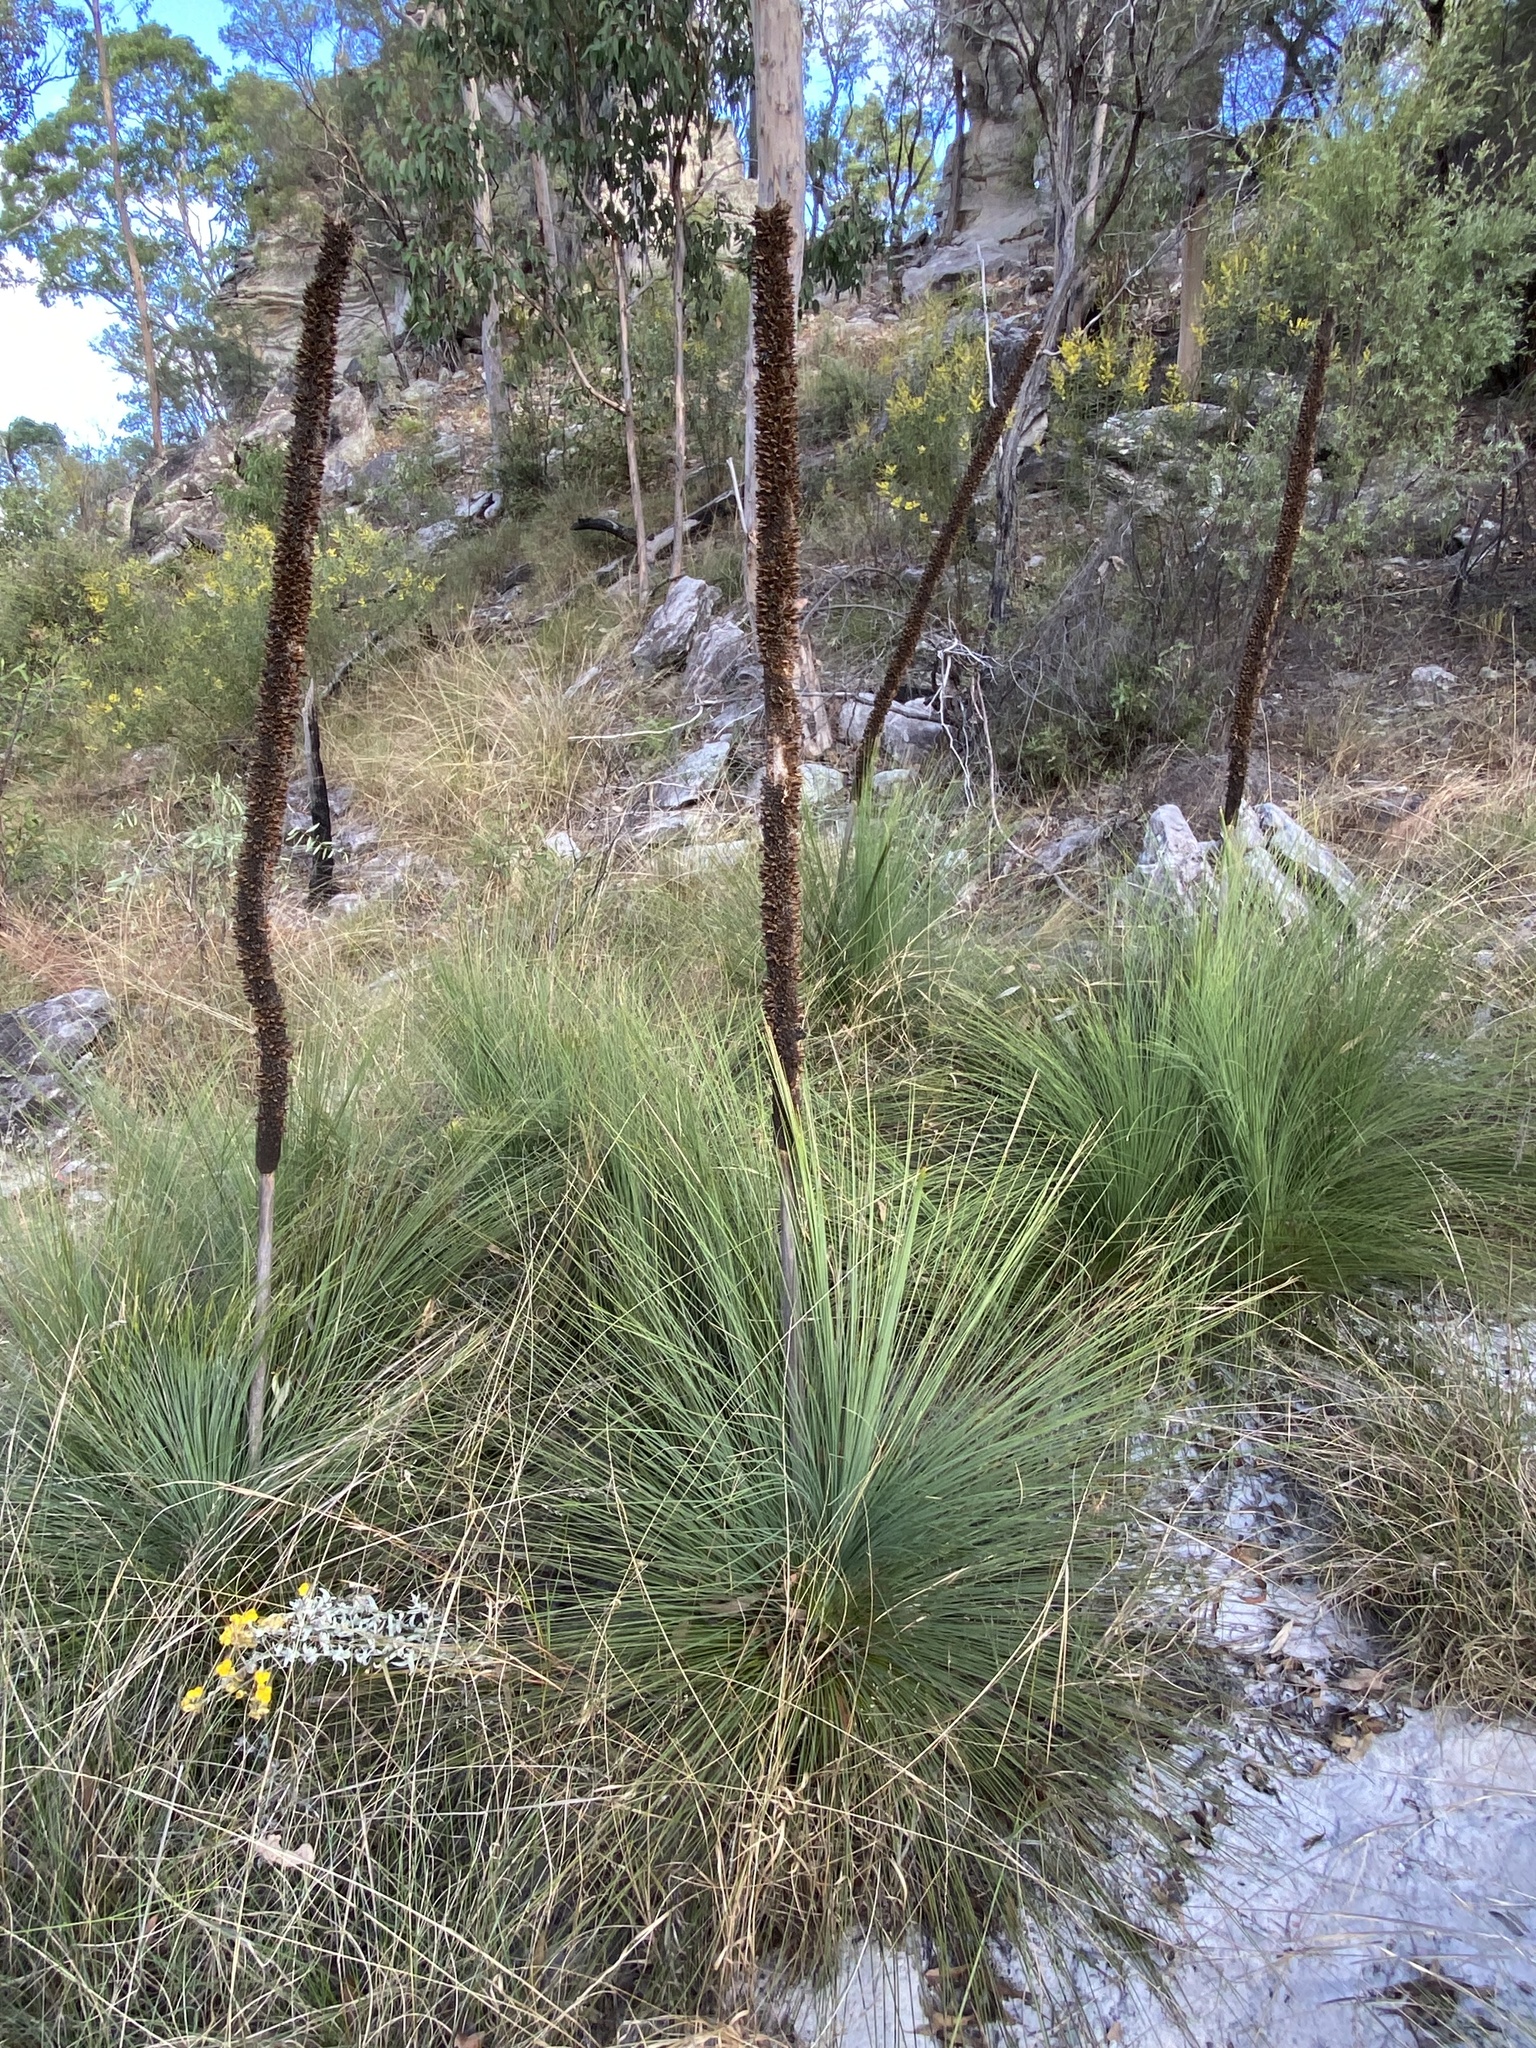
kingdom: Plantae
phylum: Tracheophyta
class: Liliopsida
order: Asparagales
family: Asphodelaceae
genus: Xanthorrhoea
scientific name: Xanthorrhoea johnsonii
